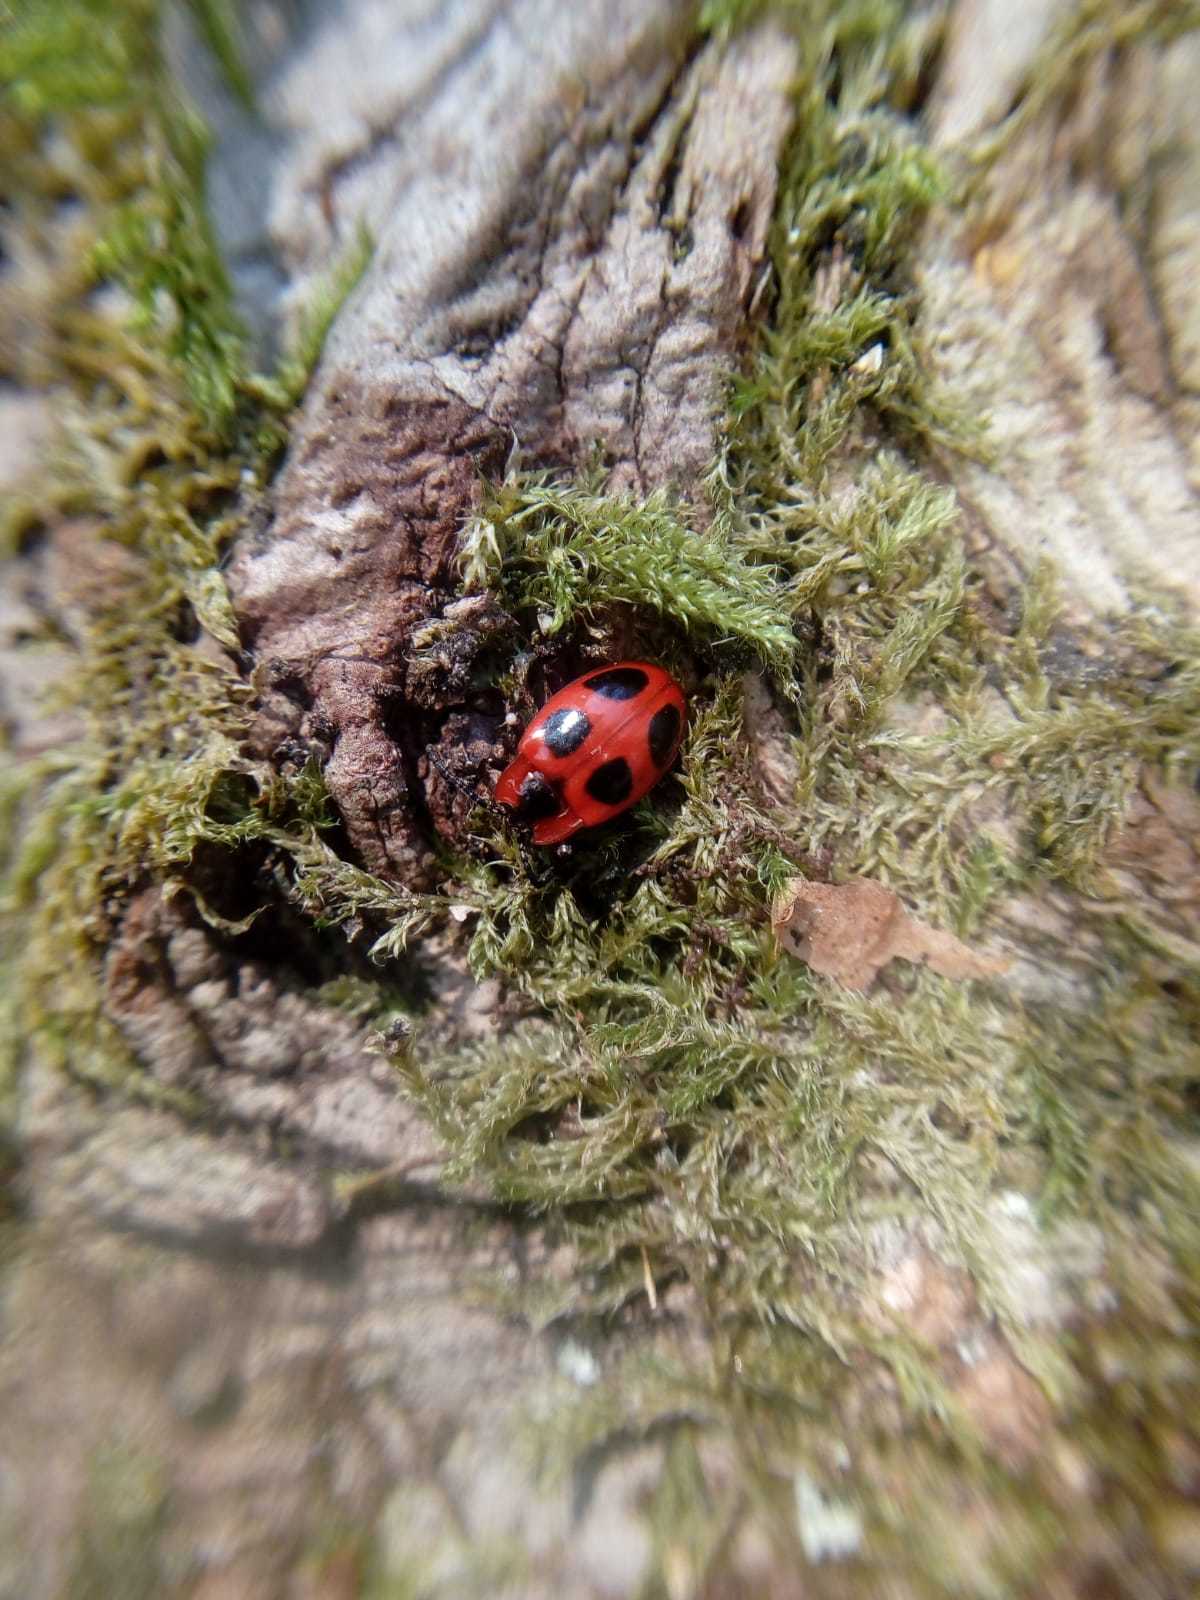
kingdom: Animalia
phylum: Arthropoda
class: Insecta
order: Coleoptera
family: Endomychidae
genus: Endomychus
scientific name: Endomychus coccineus
